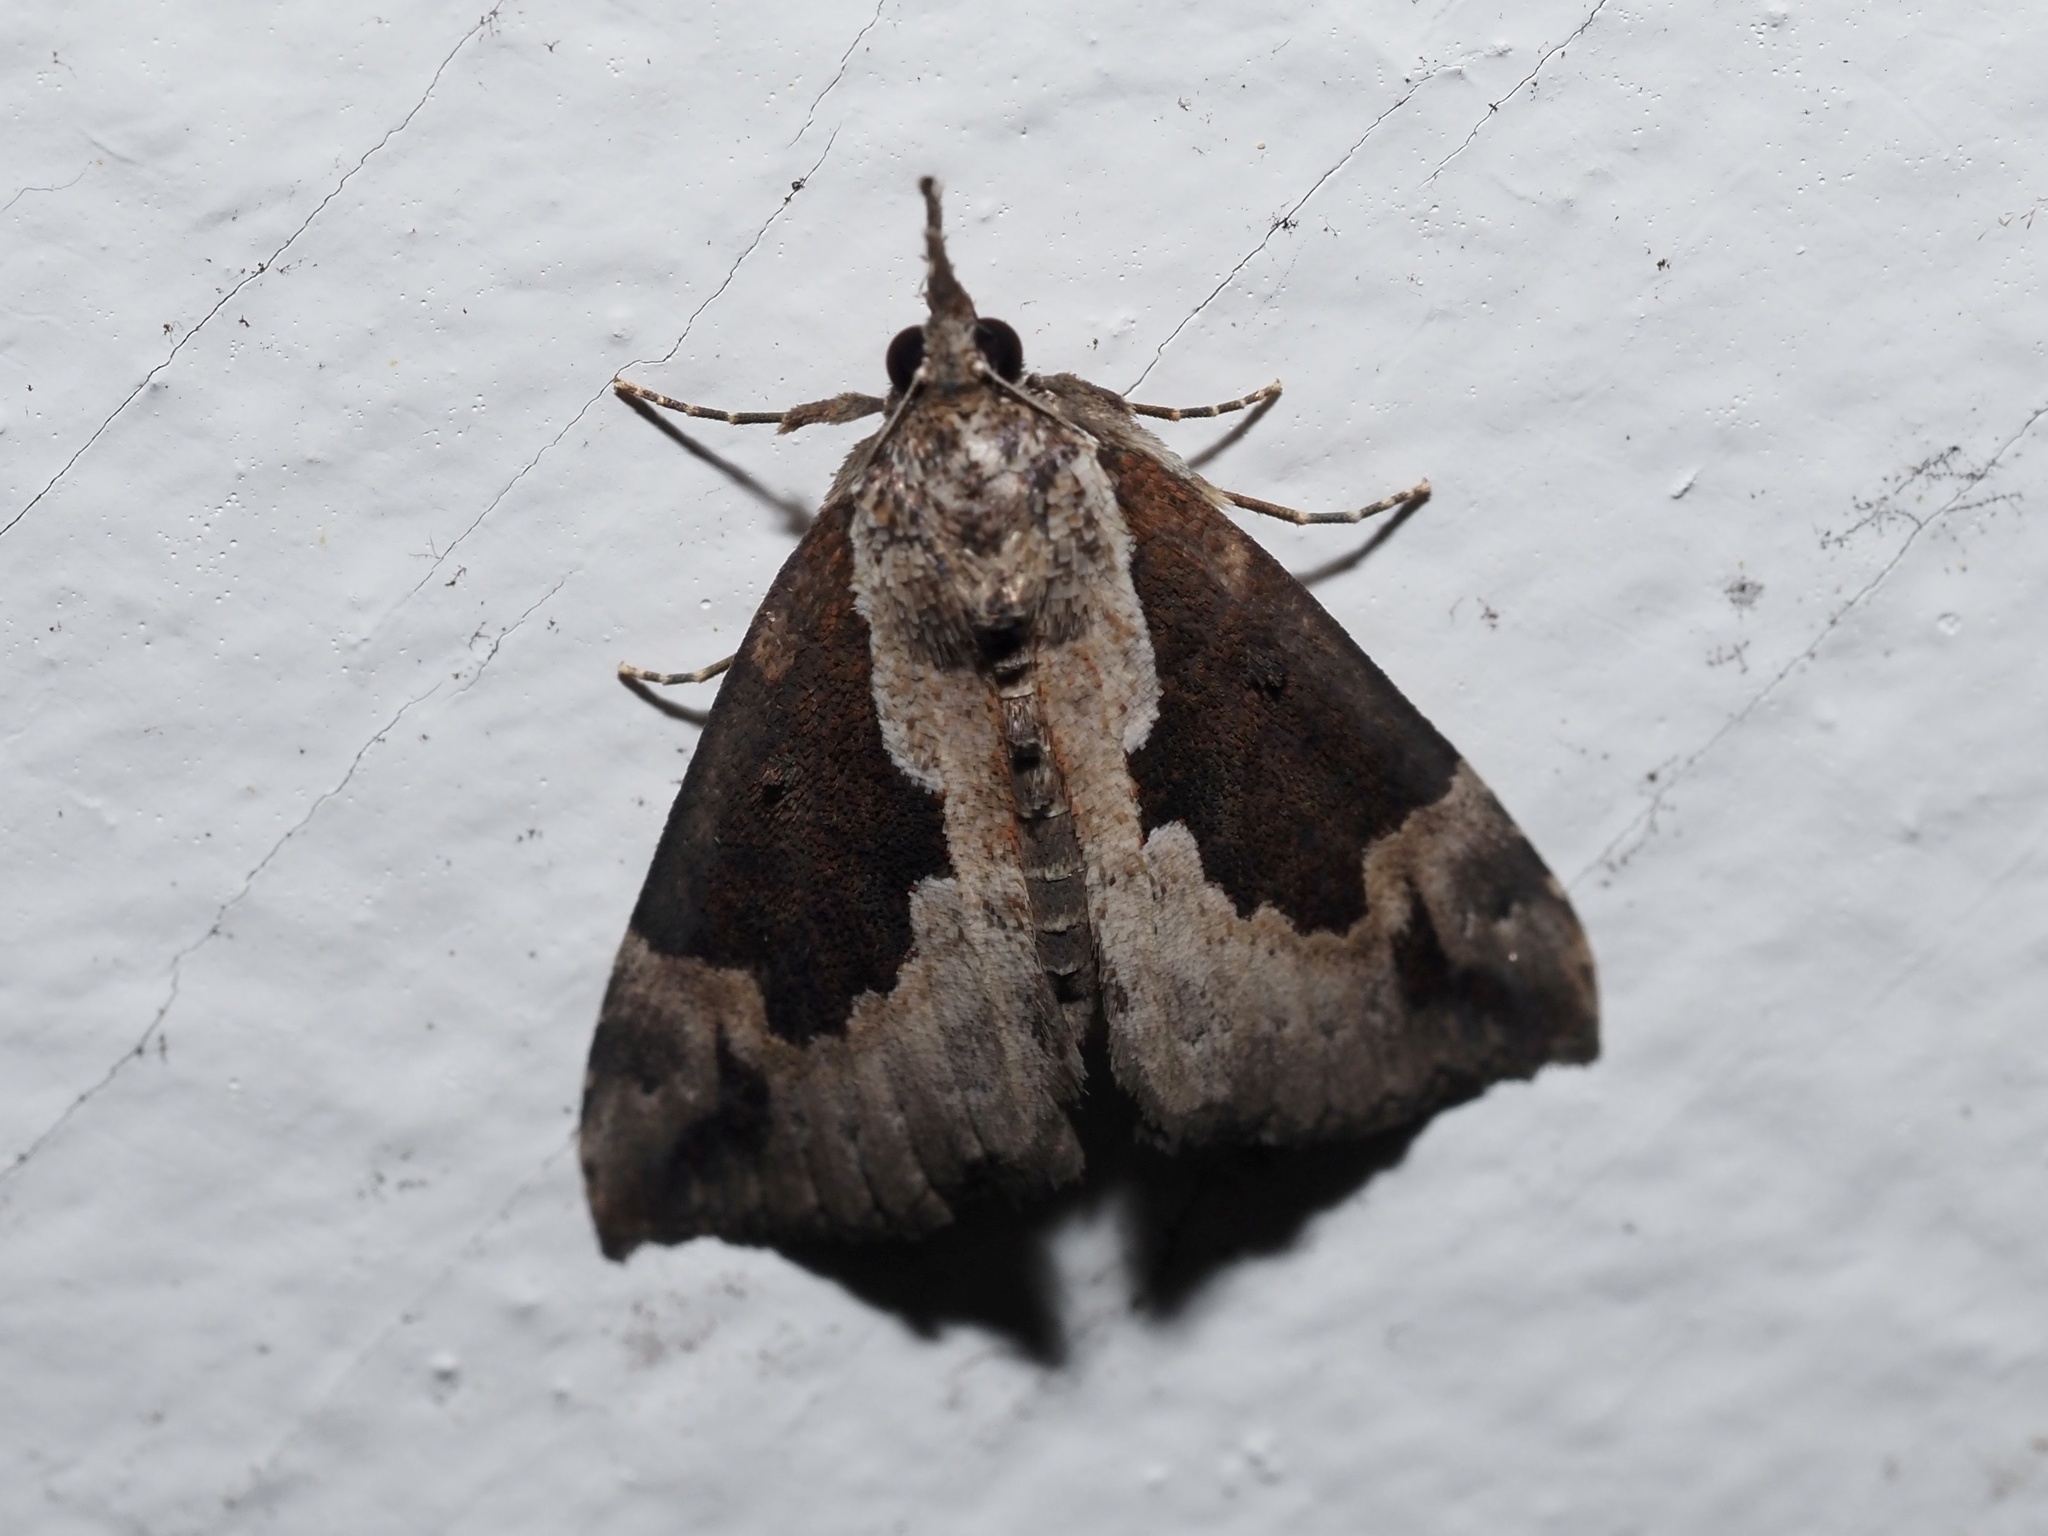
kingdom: Animalia
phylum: Arthropoda
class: Insecta
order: Lepidoptera
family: Erebidae
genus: Hypena
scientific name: Hypena baltimoralis
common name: Baltimore snout
